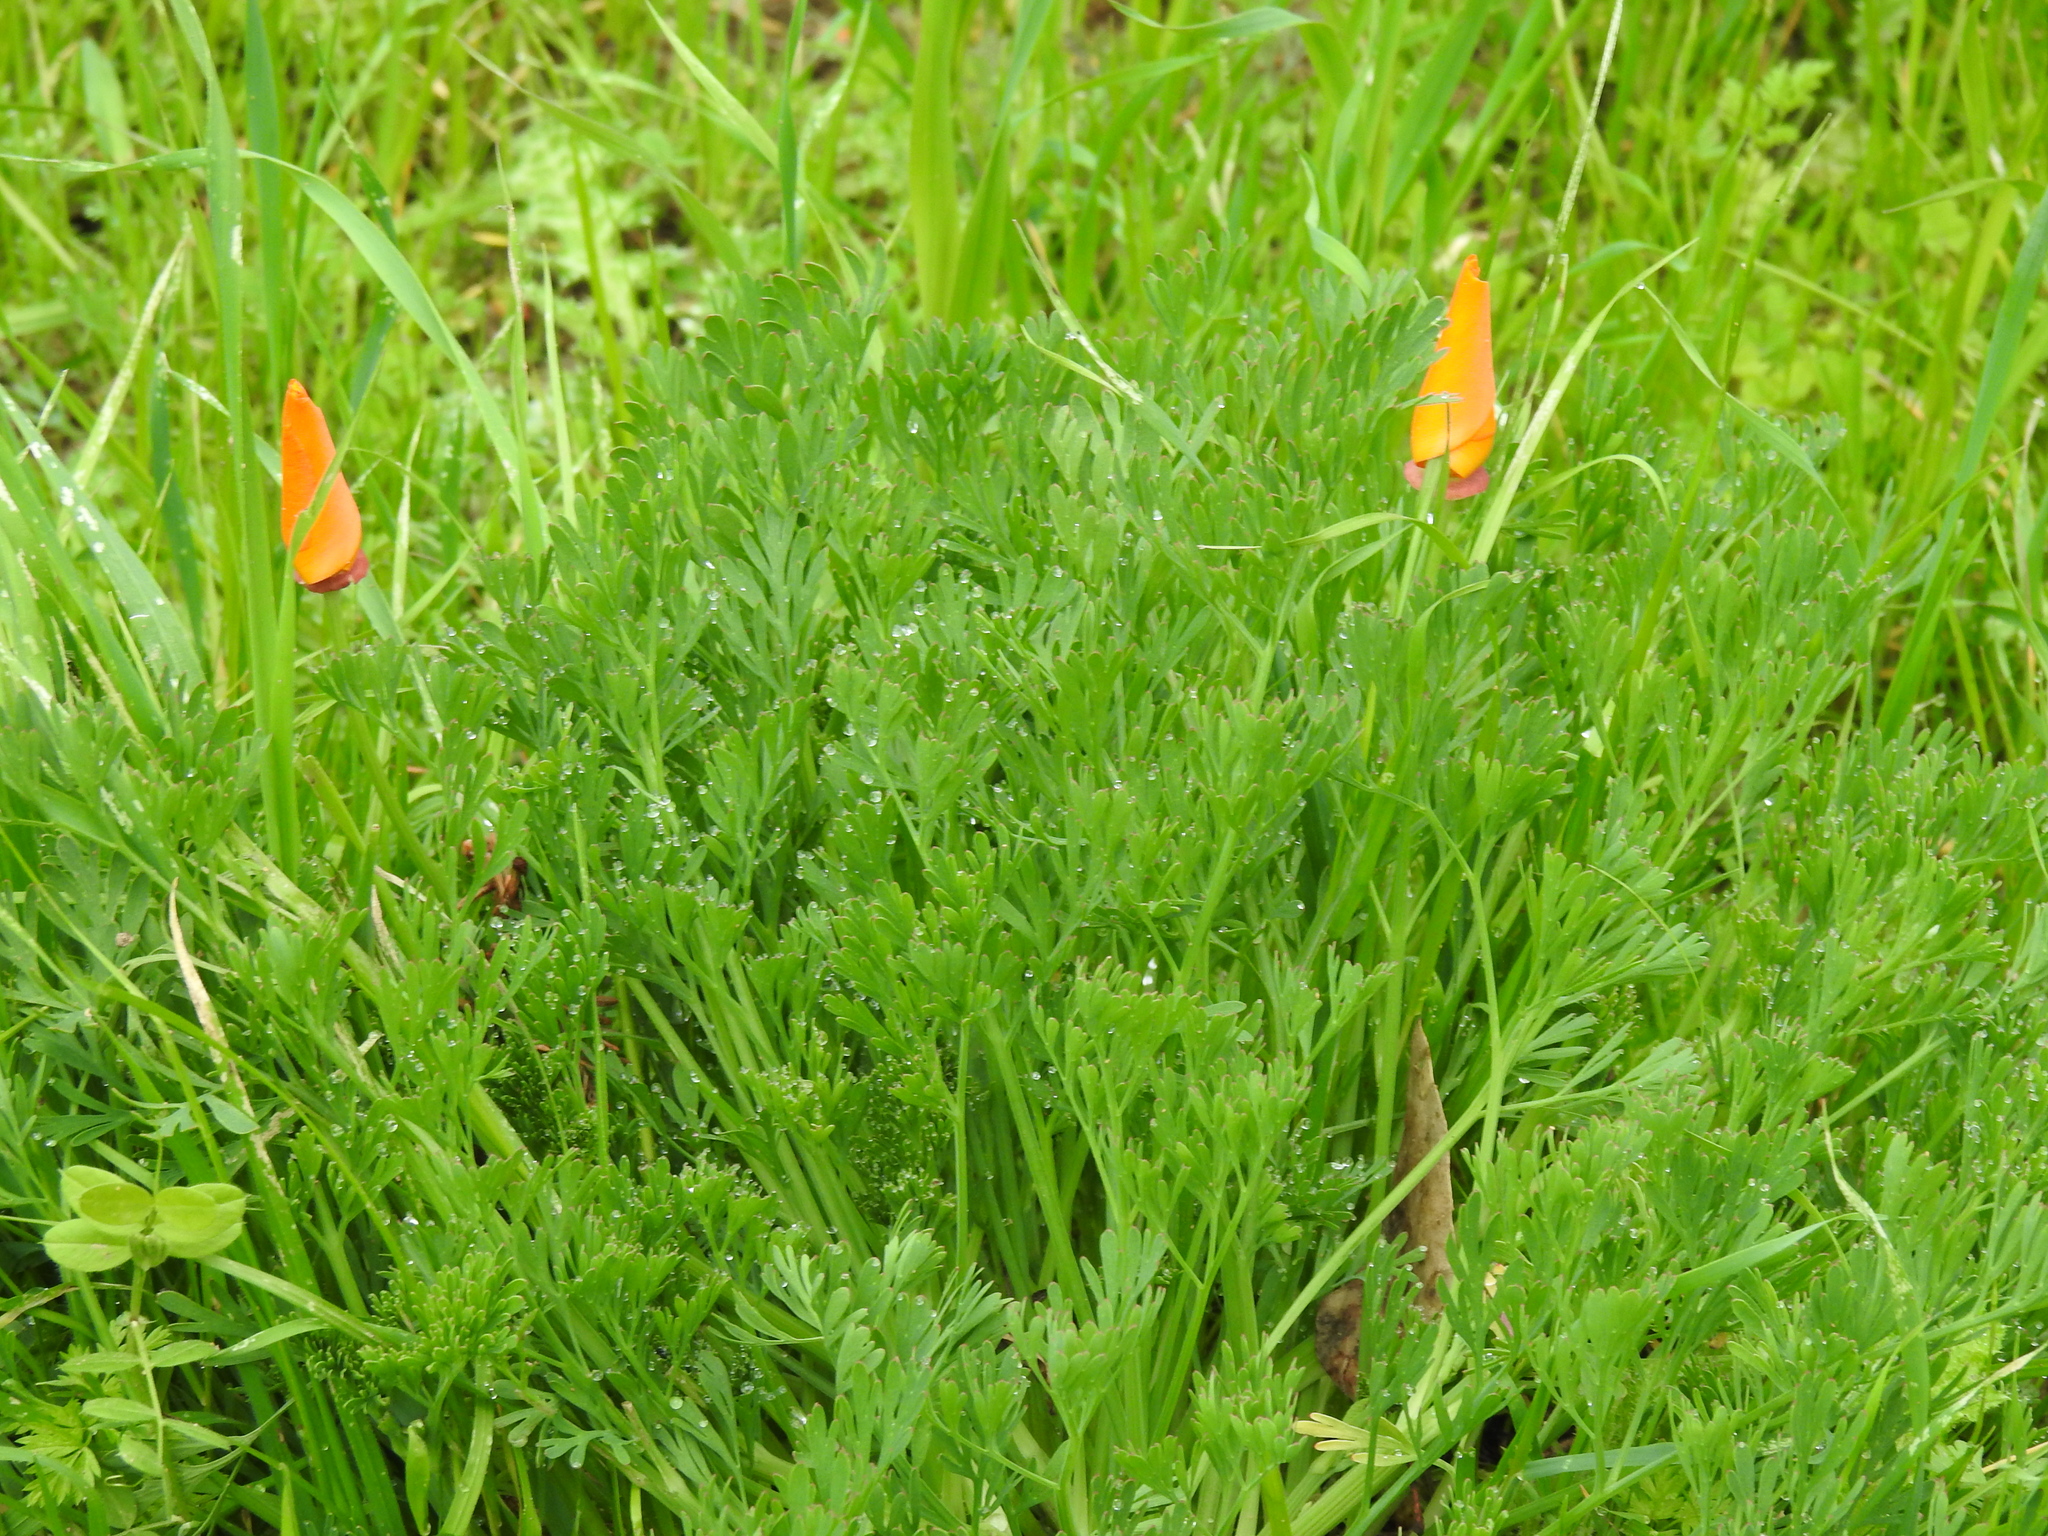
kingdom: Plantae
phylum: Tracheophyta
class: Magnoliopsida
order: Ranunculales
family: Papaveraceae
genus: Eschscholzia
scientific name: Eschscholzia californica
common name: California poppy
